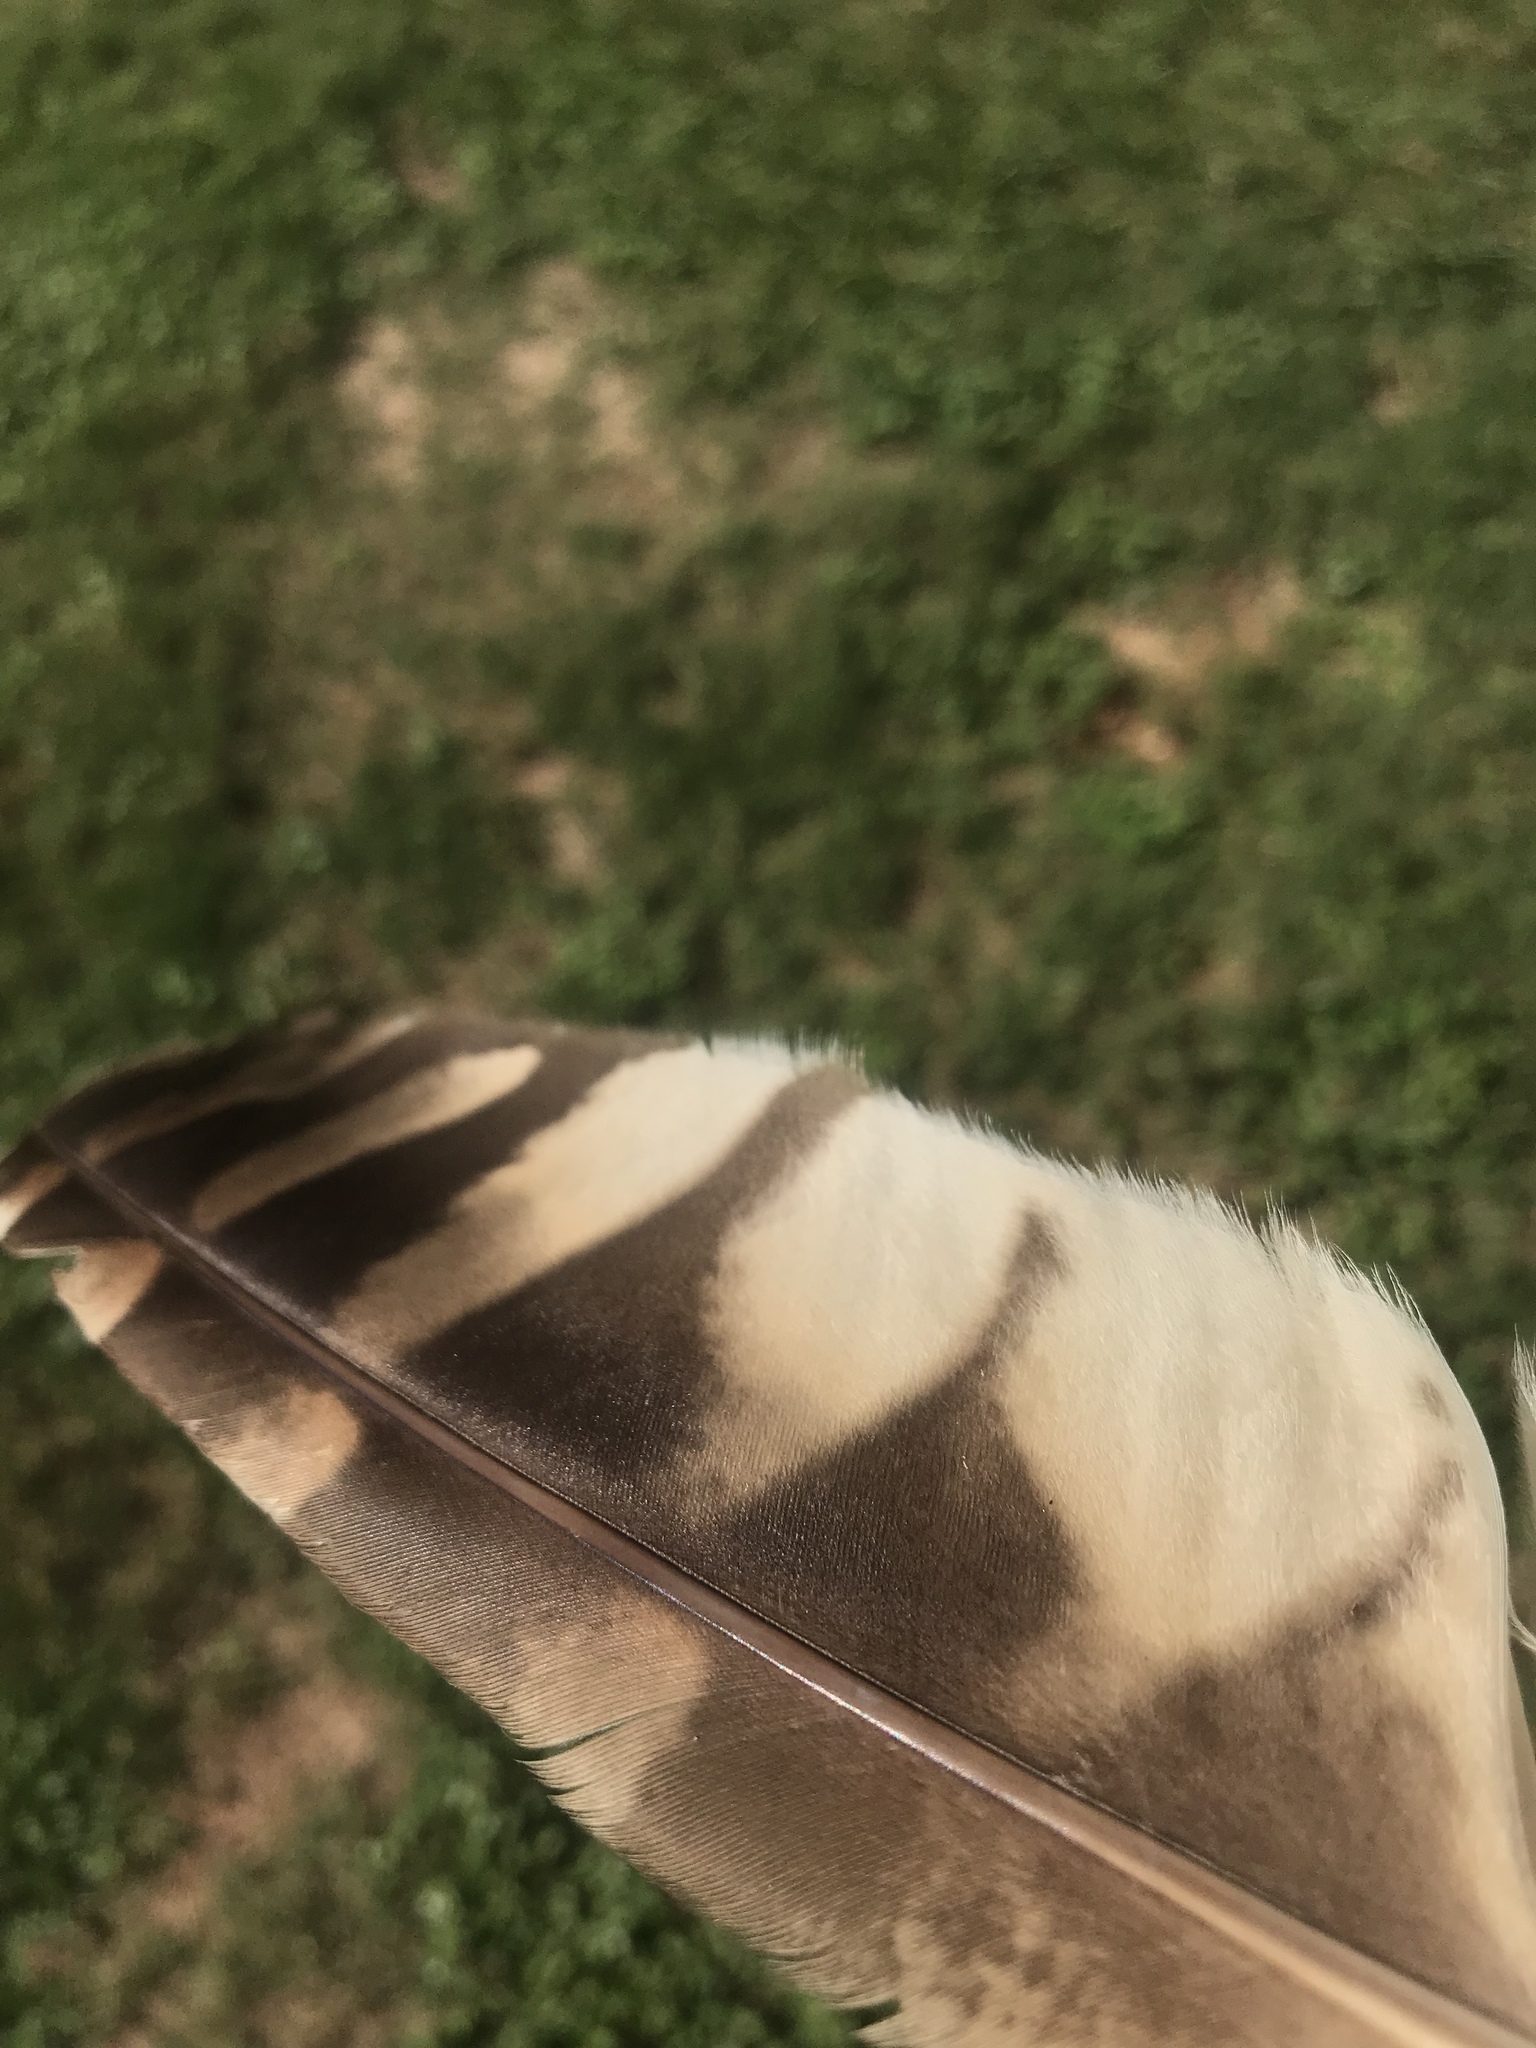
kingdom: Animalia
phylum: Chordata
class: Aves
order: Strigiformes
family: Strigidae
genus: Strix
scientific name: Strix varia
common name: Barred owl
